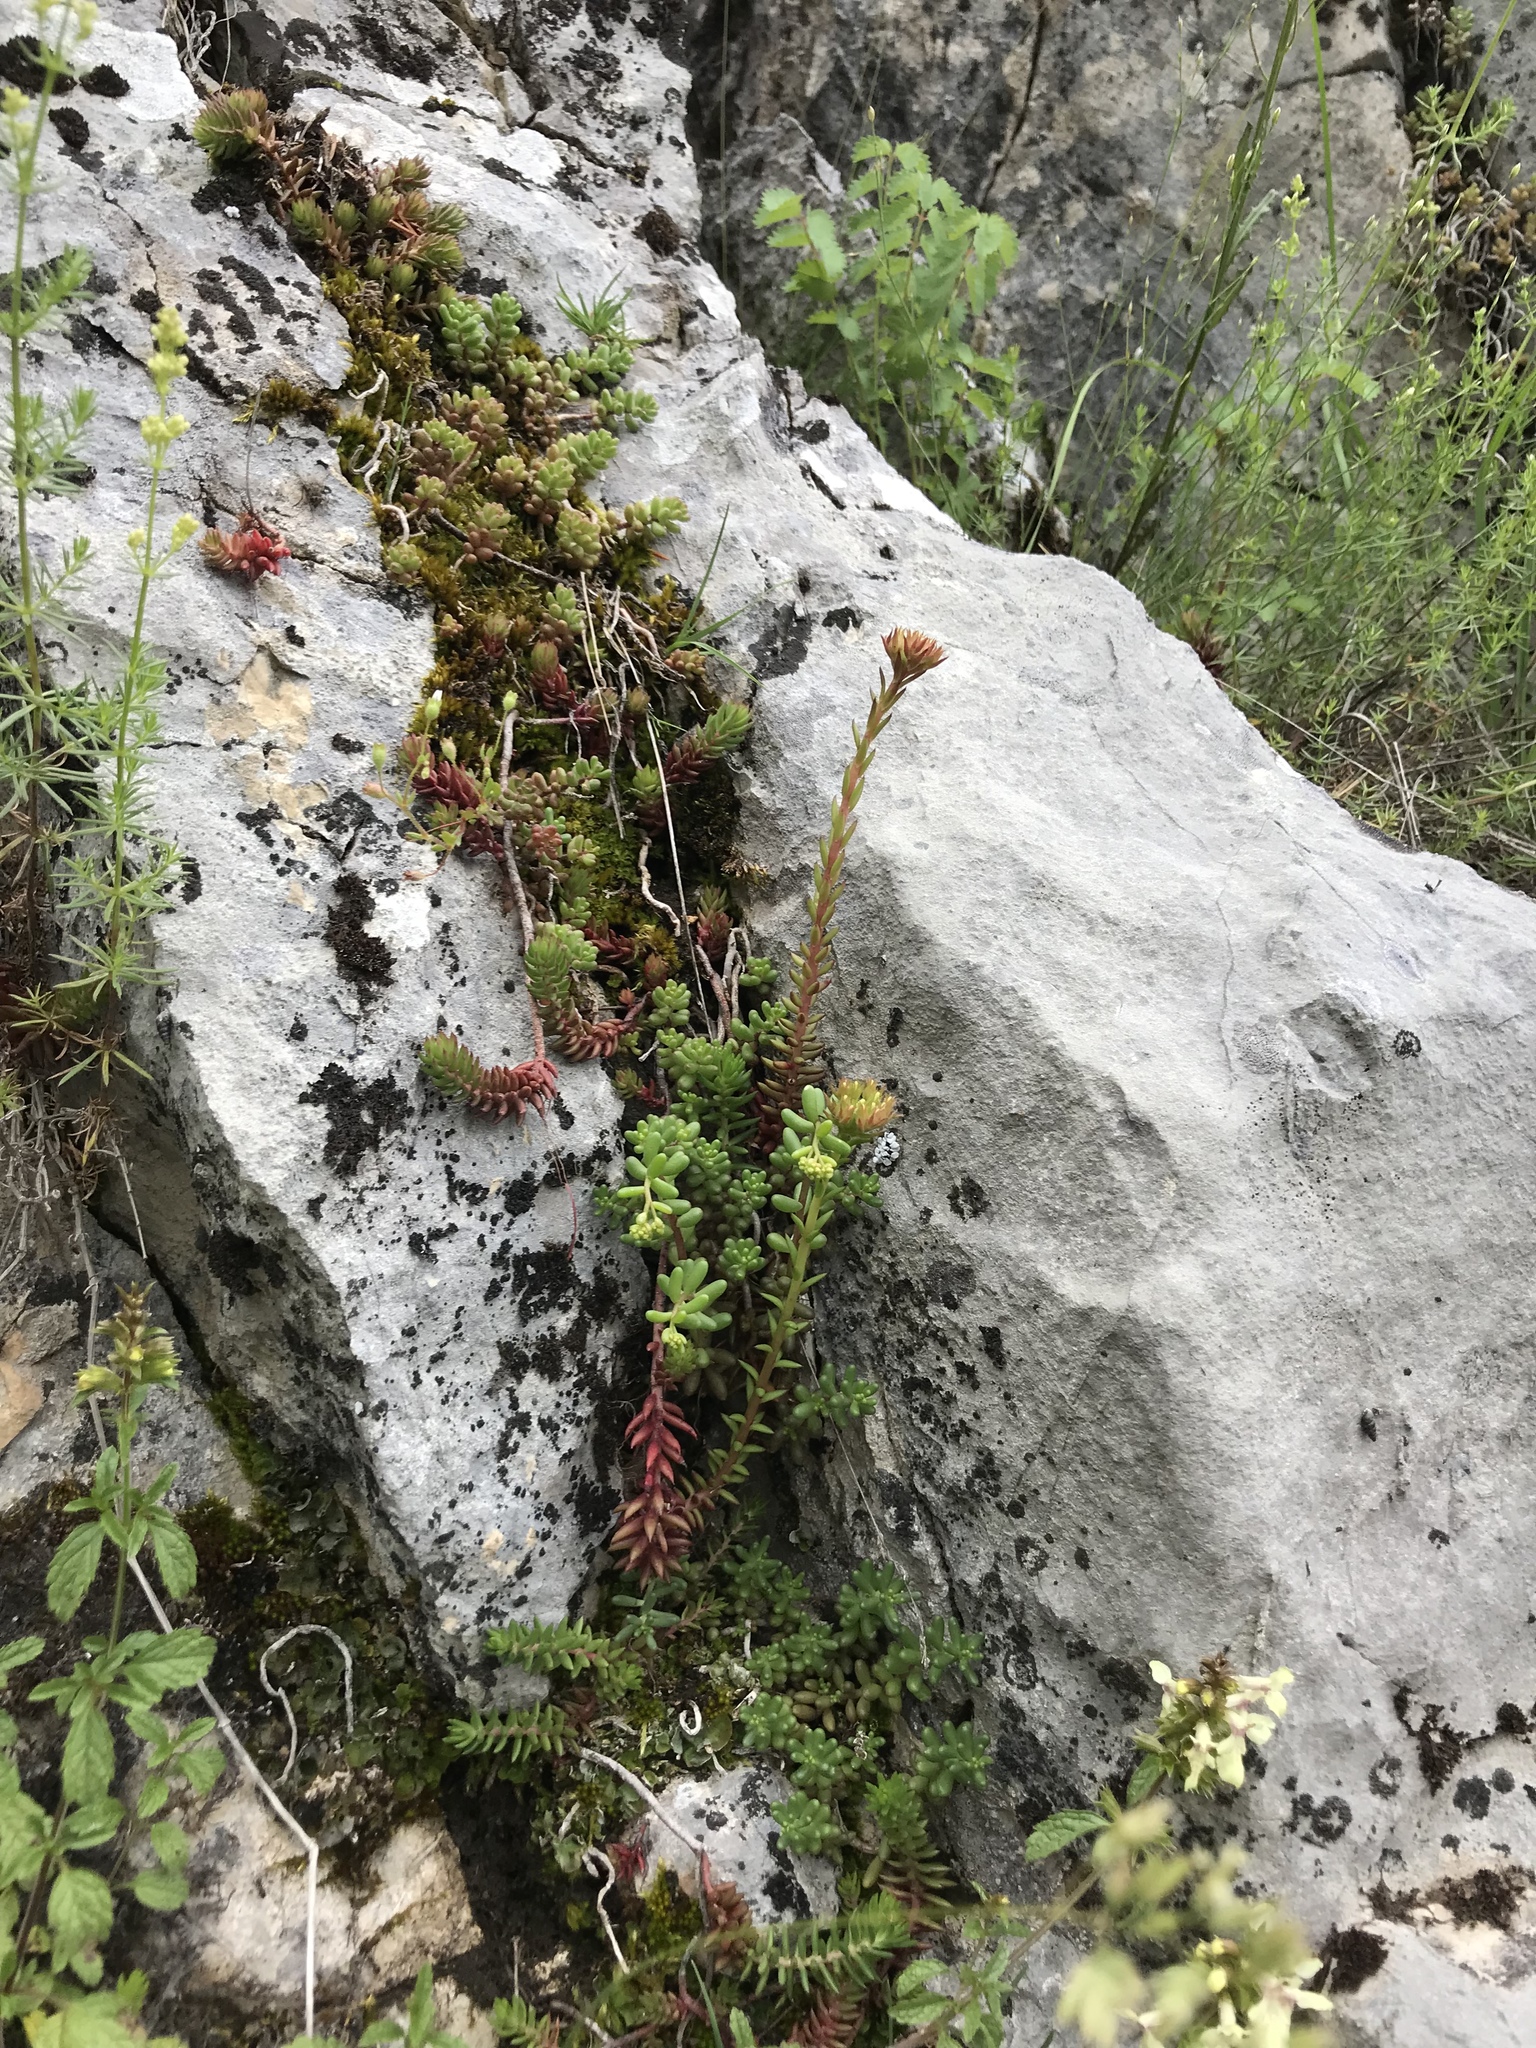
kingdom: Plantae
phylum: Tracheophyta
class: Magnoliopsida
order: Saxifragales
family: Crassulaceae
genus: Petrosedum
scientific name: Petrosedum ochroleucum
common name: European stonecrop
